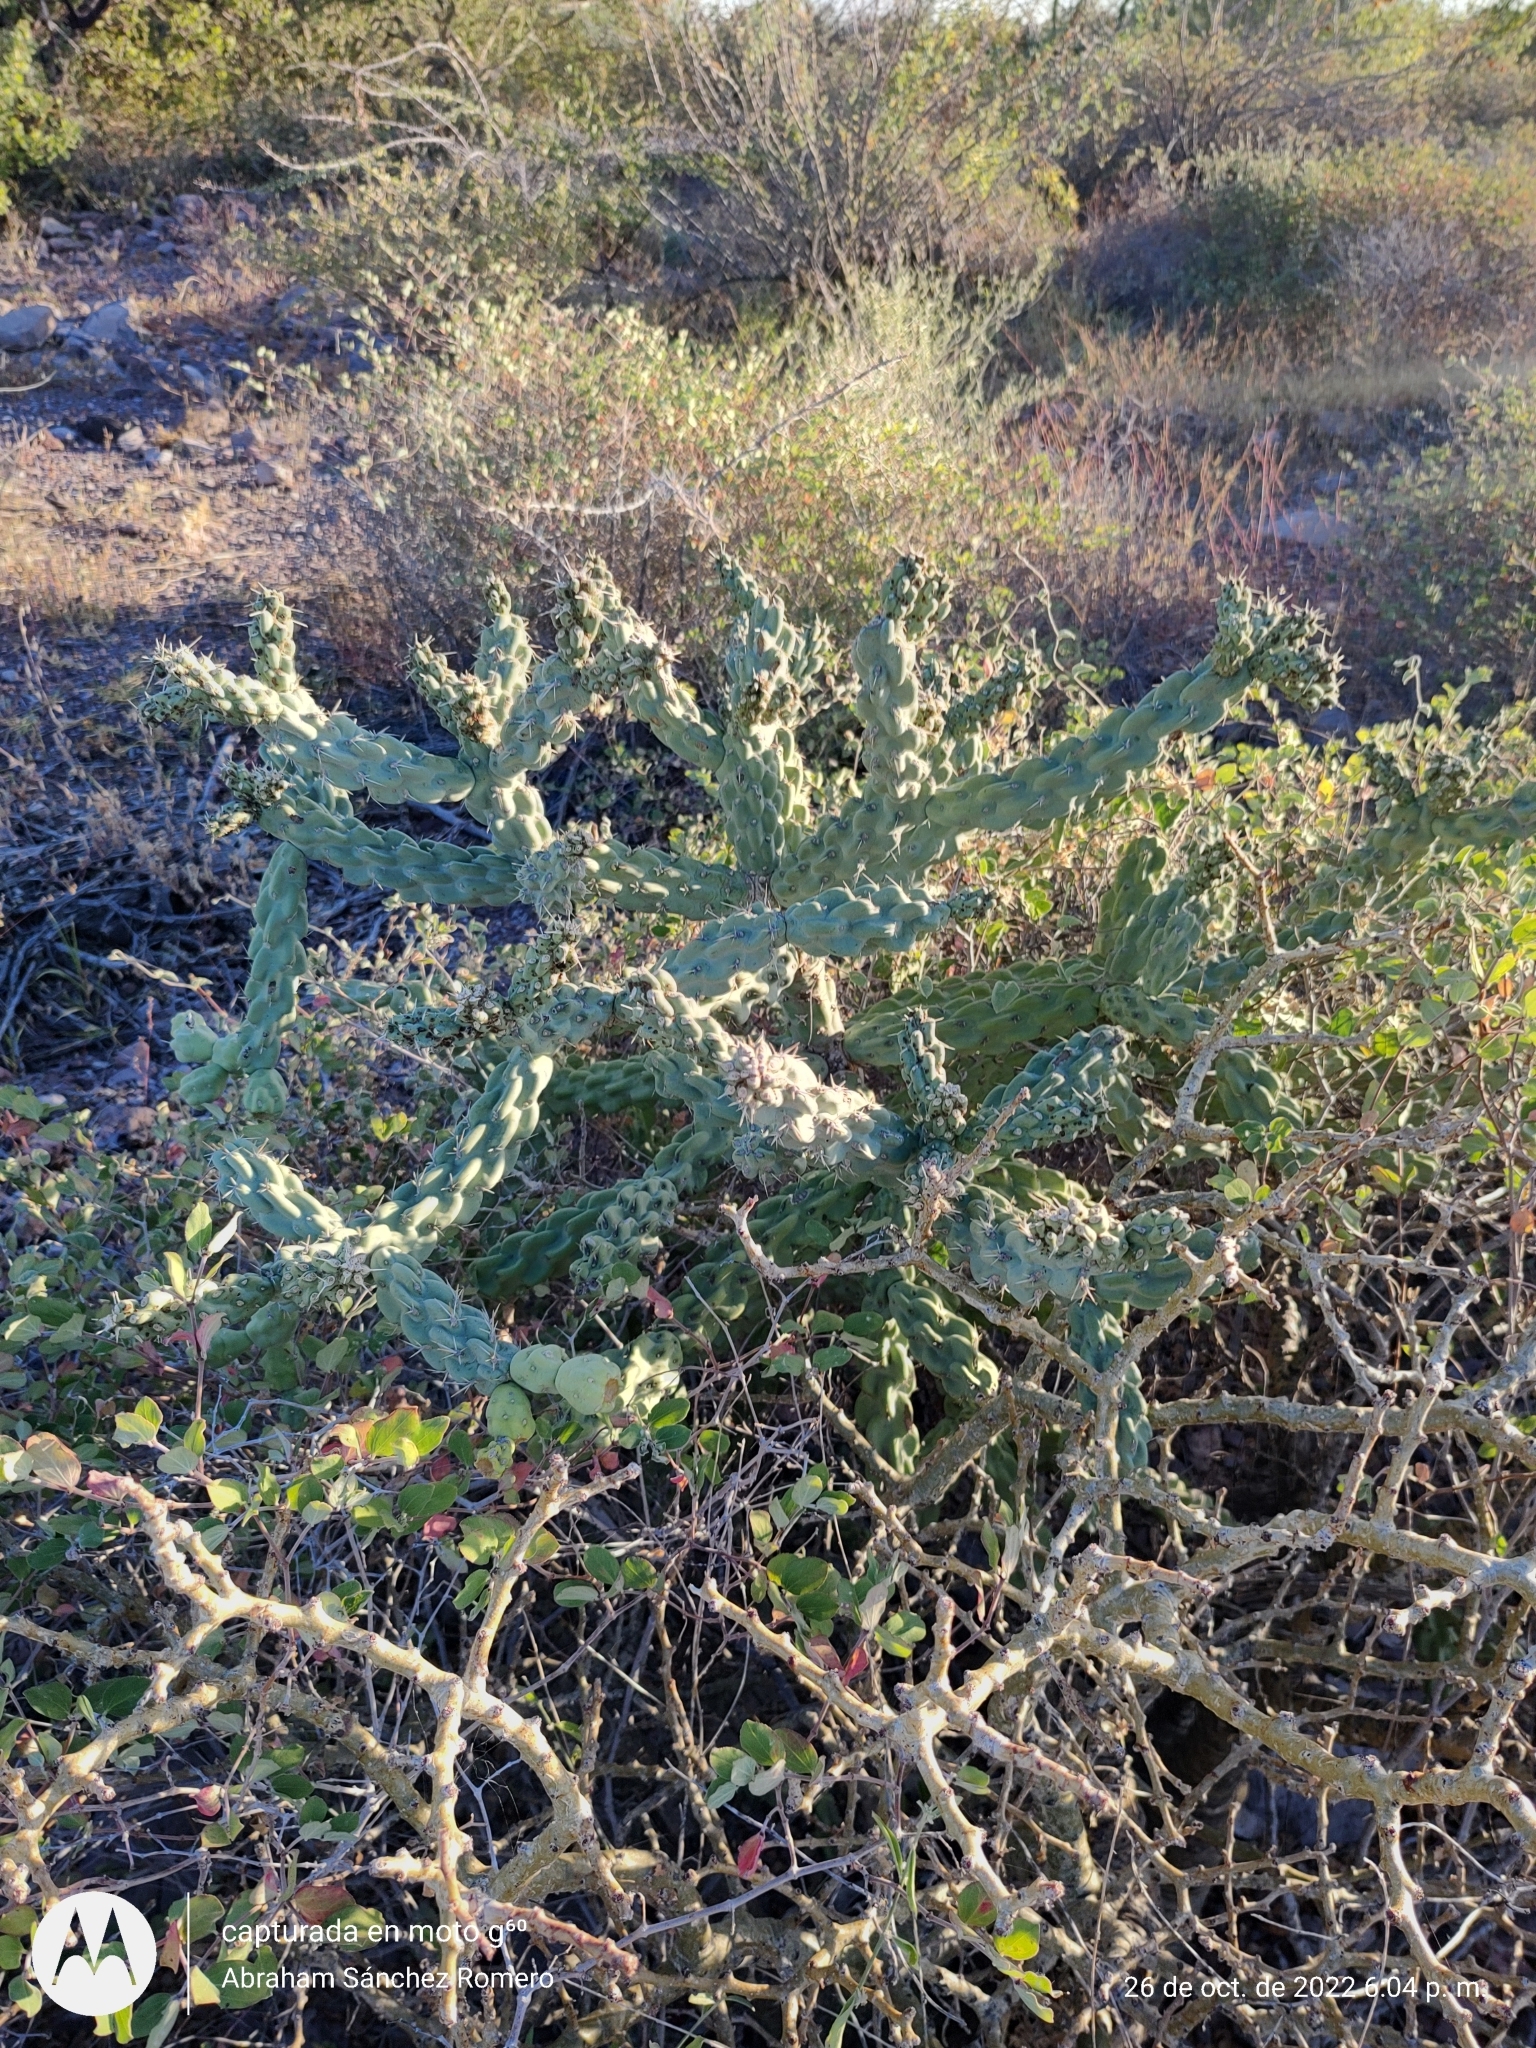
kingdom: Plantae
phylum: Tracheophyta
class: Magnoliopsida
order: Caryophyllales
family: Cactaceae
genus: Cylindropuntia
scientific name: Cylindropuntia cholla
